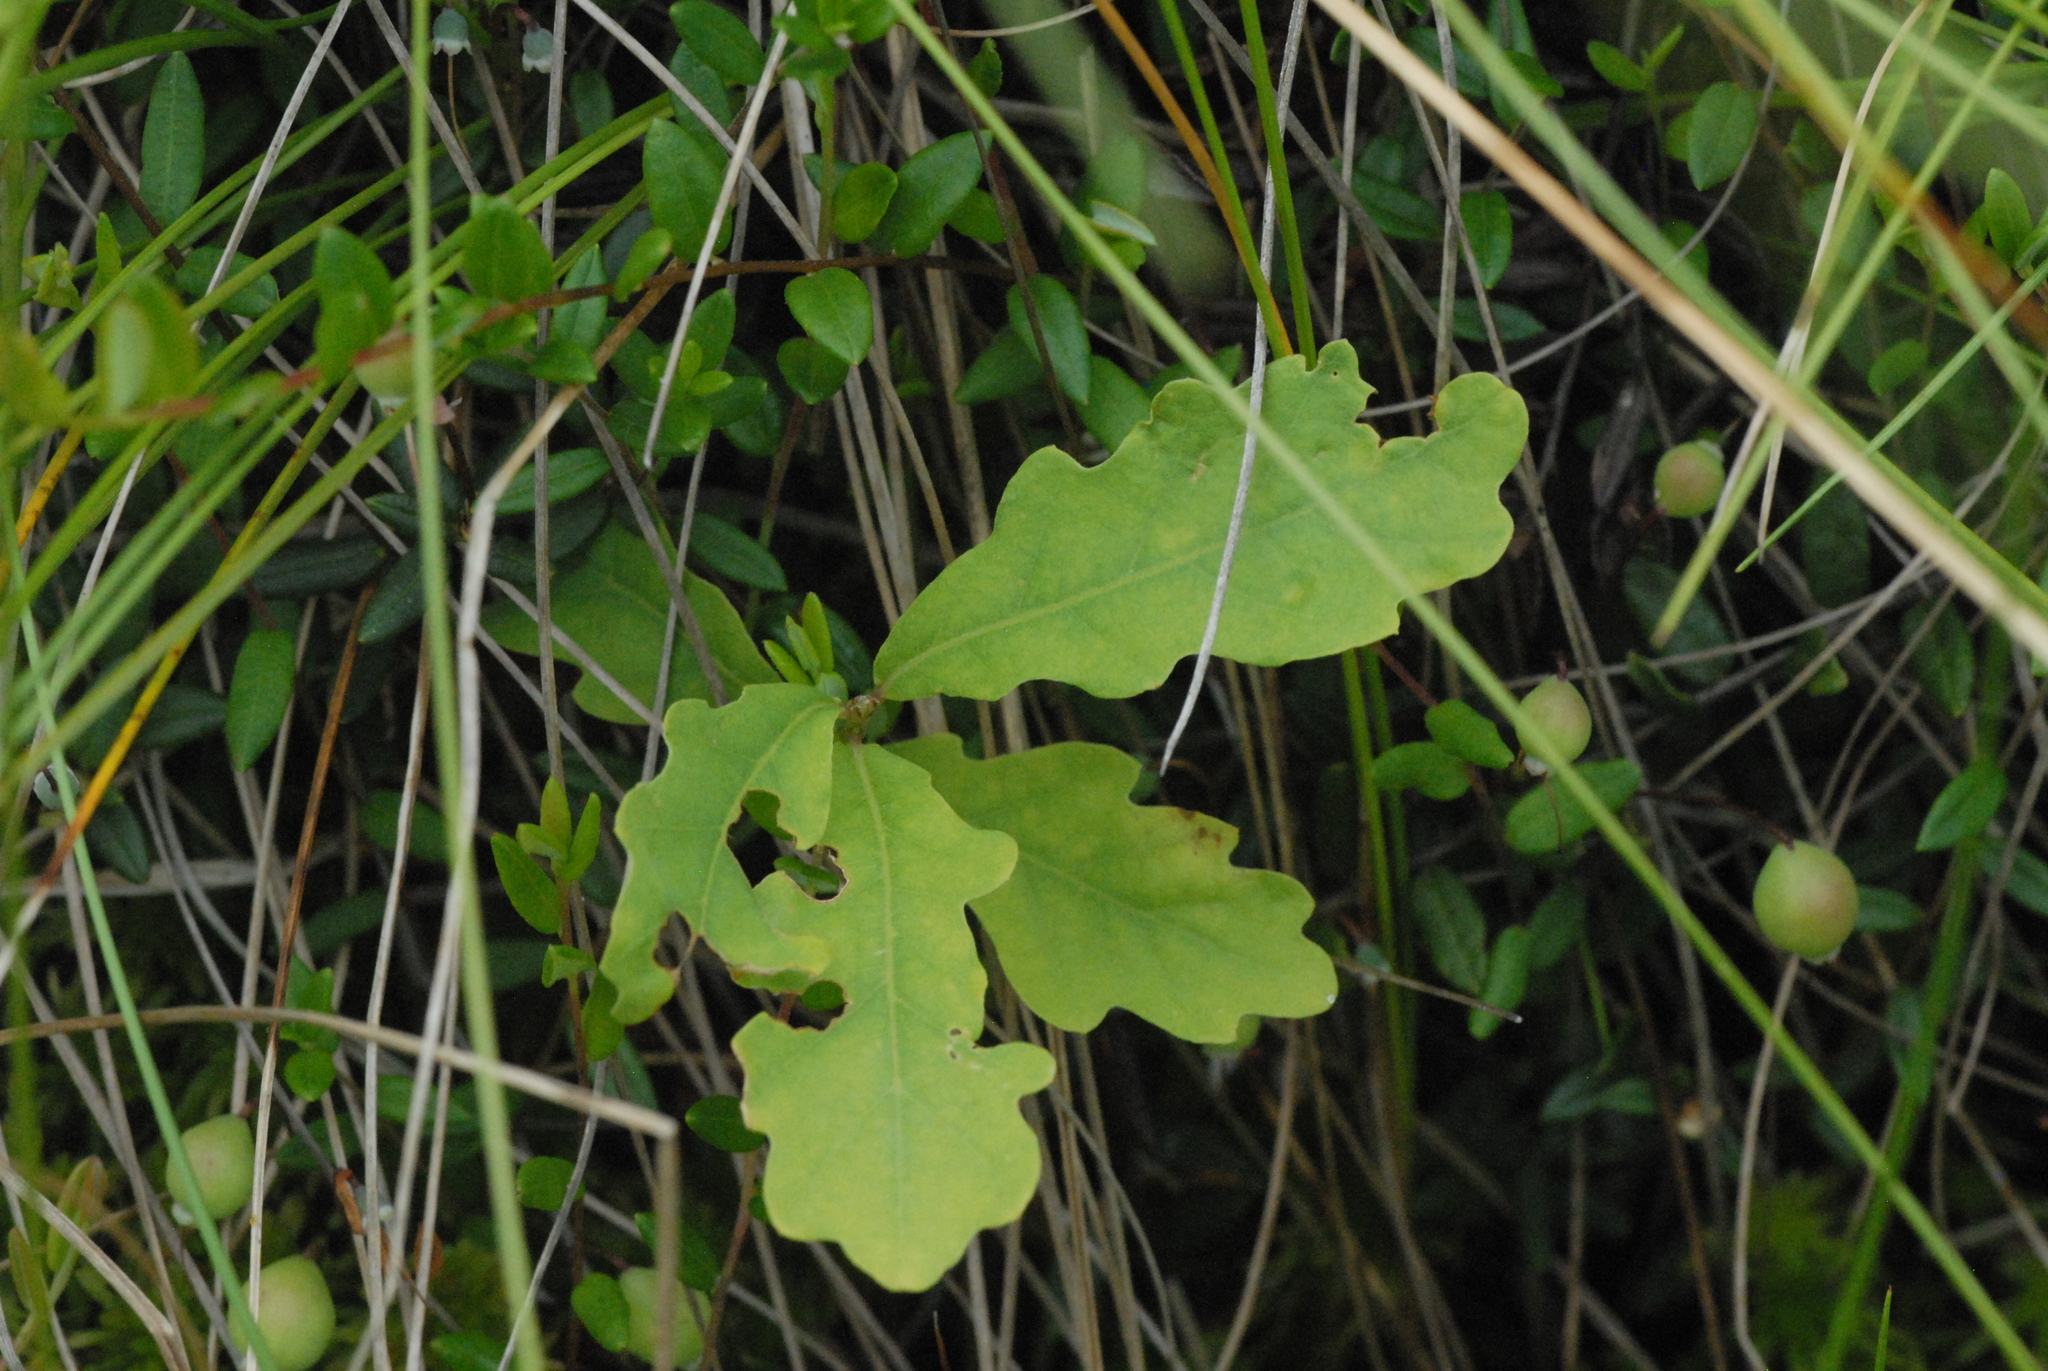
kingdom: Plantae
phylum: Tracheophyta
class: Magnoliopsida
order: Fagales
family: Fagaceae
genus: Quercus
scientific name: Quercus robur
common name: Pedunculate oak
